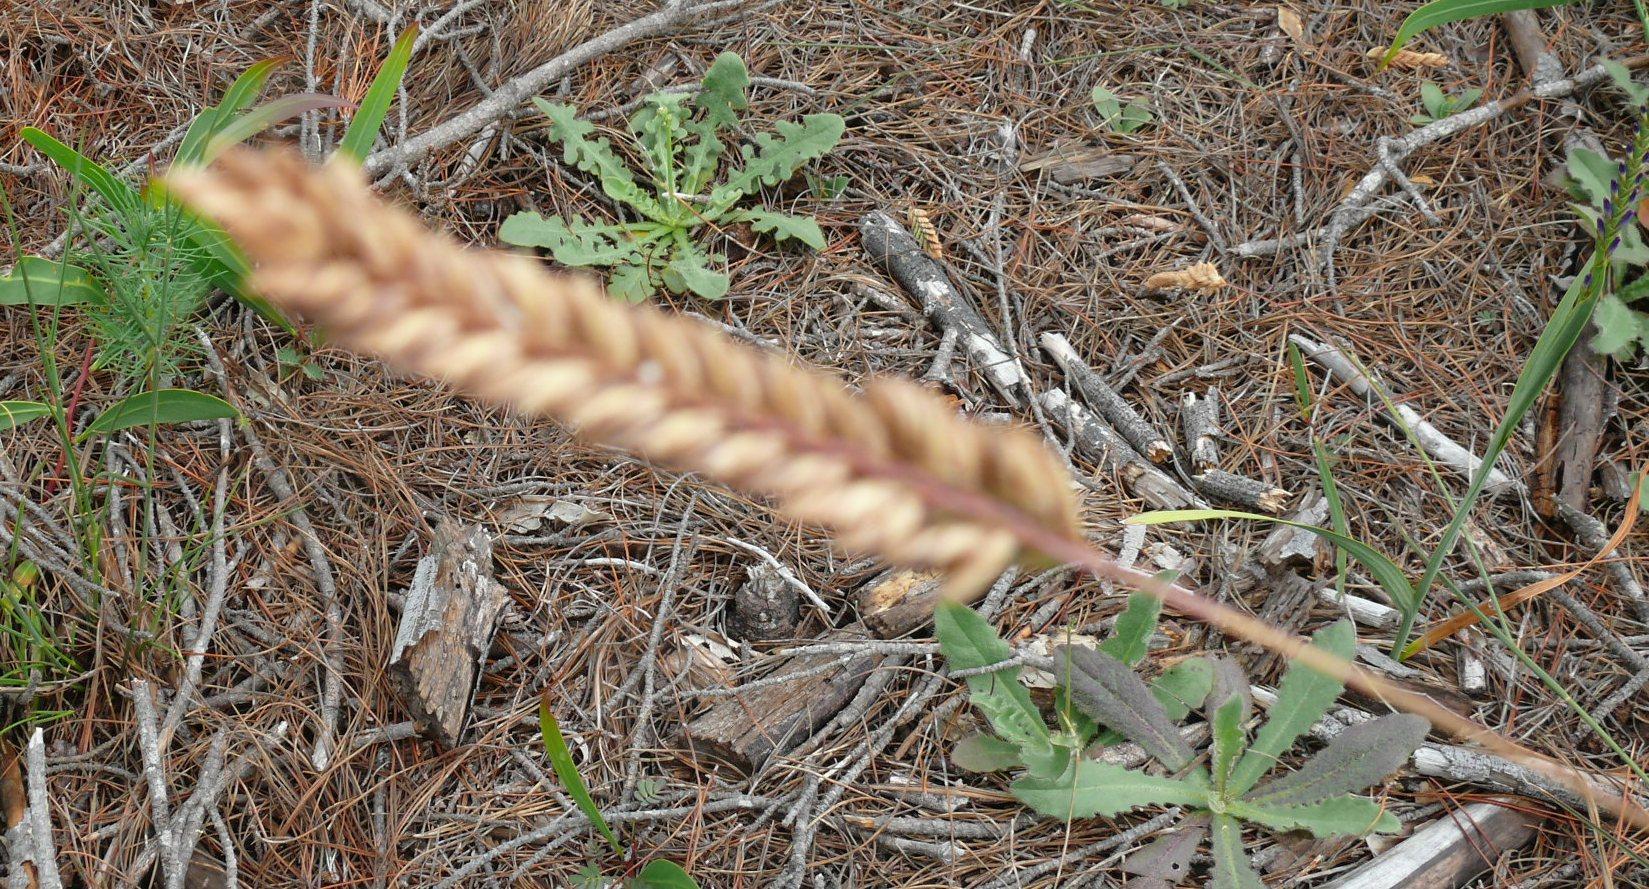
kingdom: Plantae
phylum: Tracheophyta
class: Liliopsida
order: Poales
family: Poaceae
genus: Tribolium
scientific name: Tribolium uniolae
